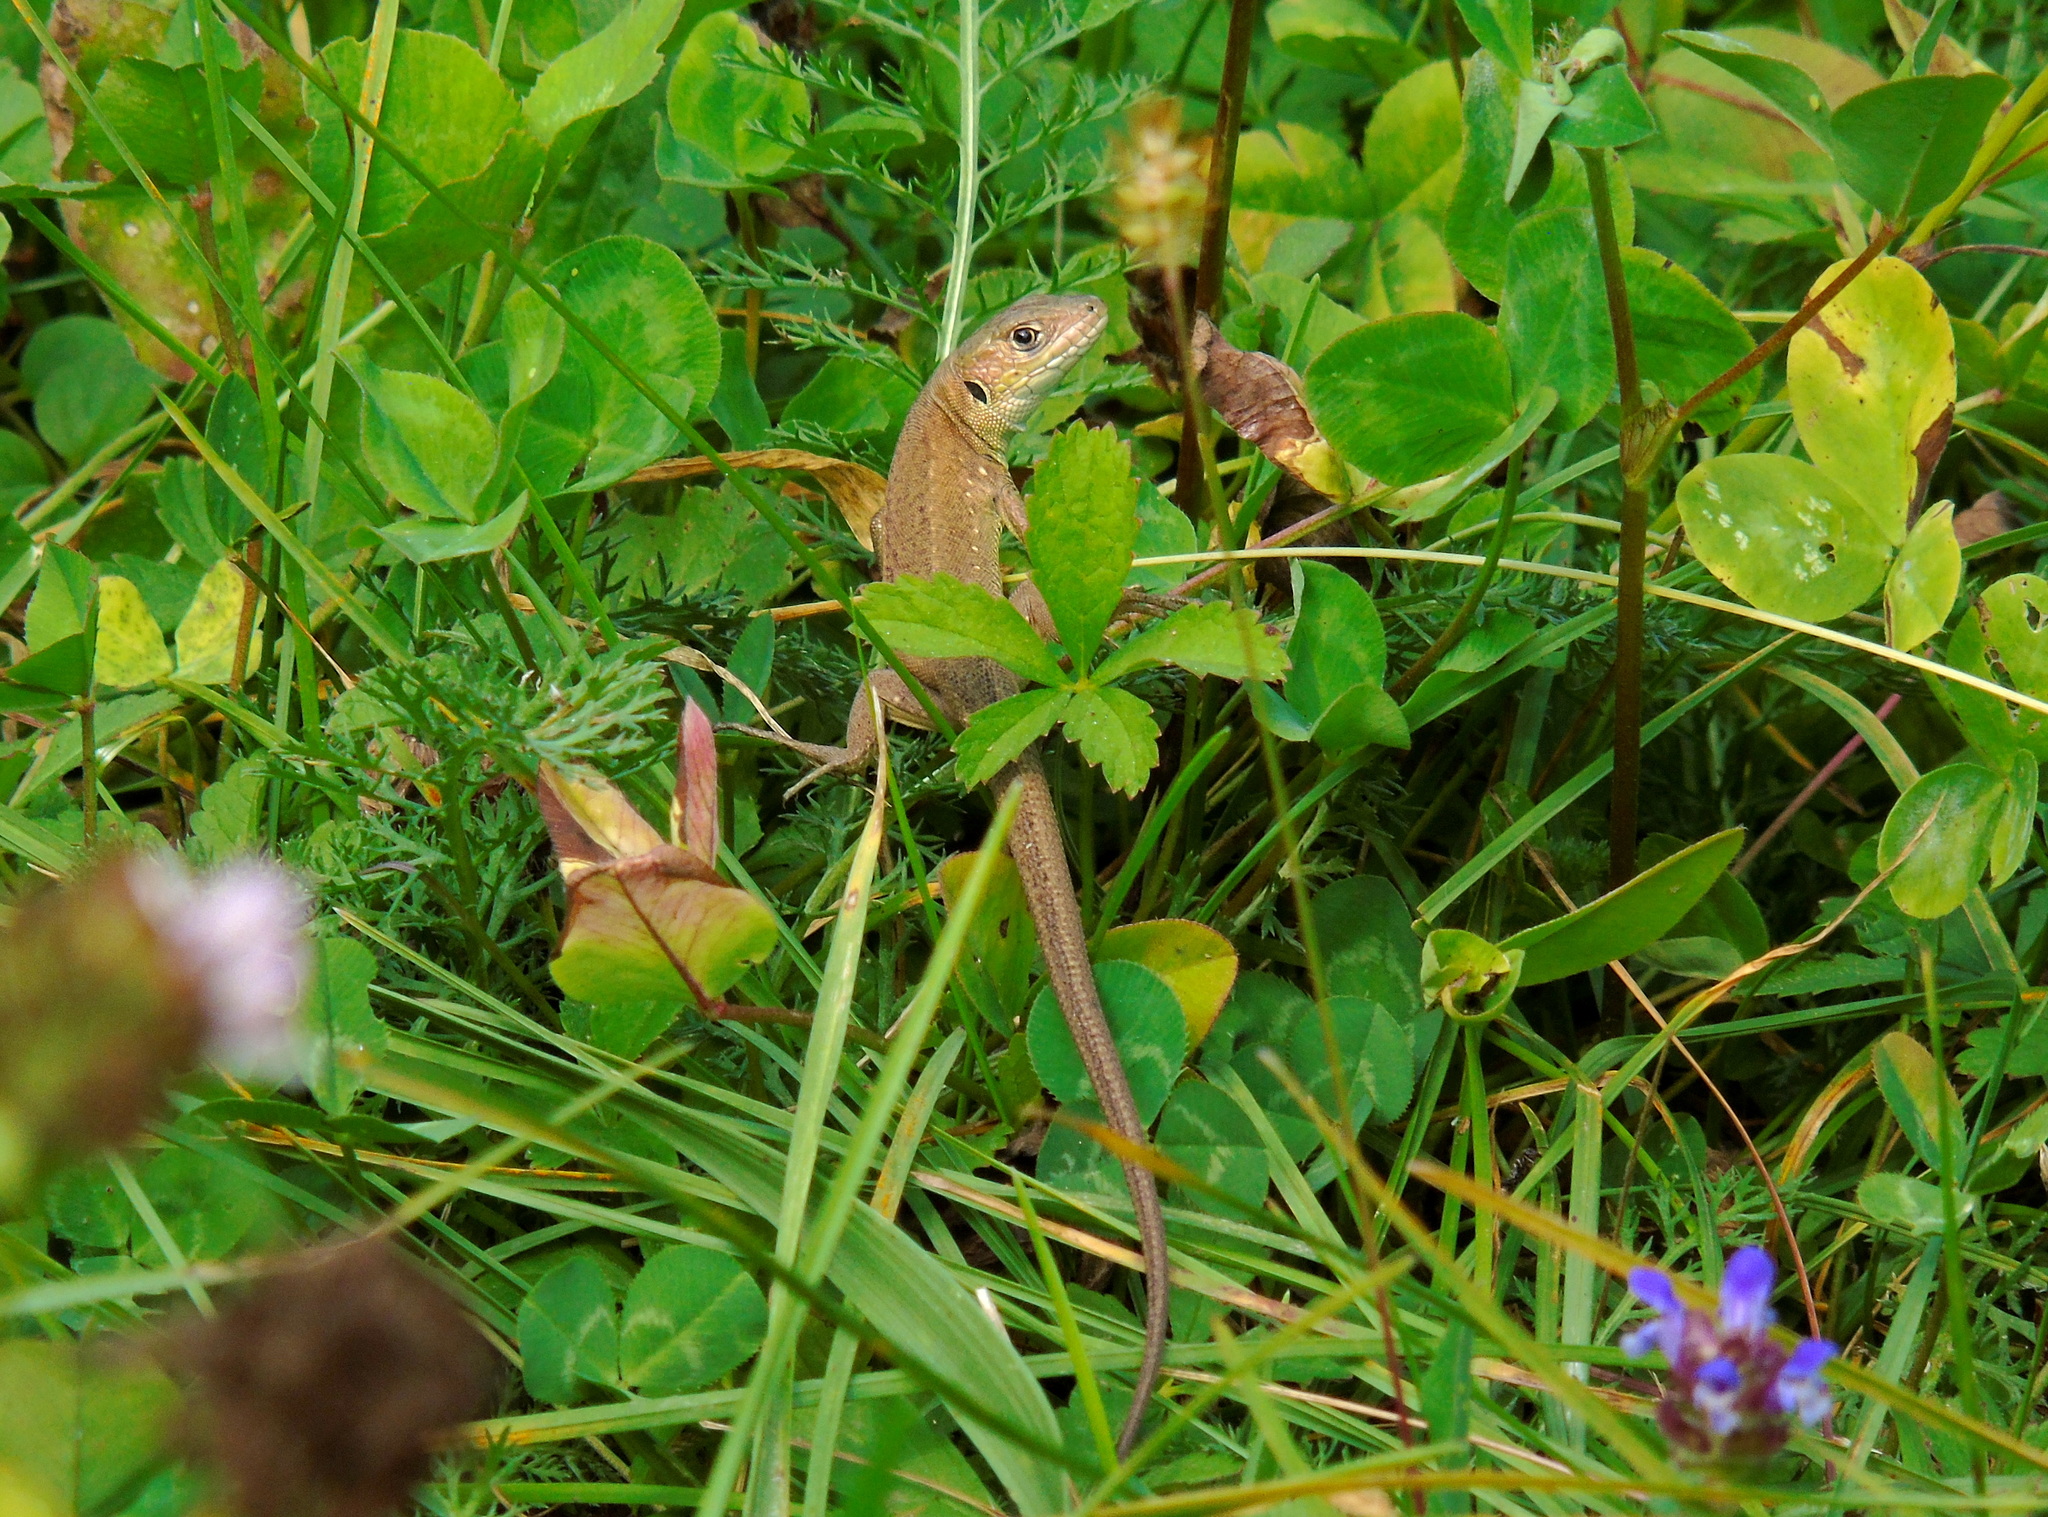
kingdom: Animalia
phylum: Chordata
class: Squamata
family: Lacertidae
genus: Lacerta
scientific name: Lacerta viridis
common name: European green lizard
